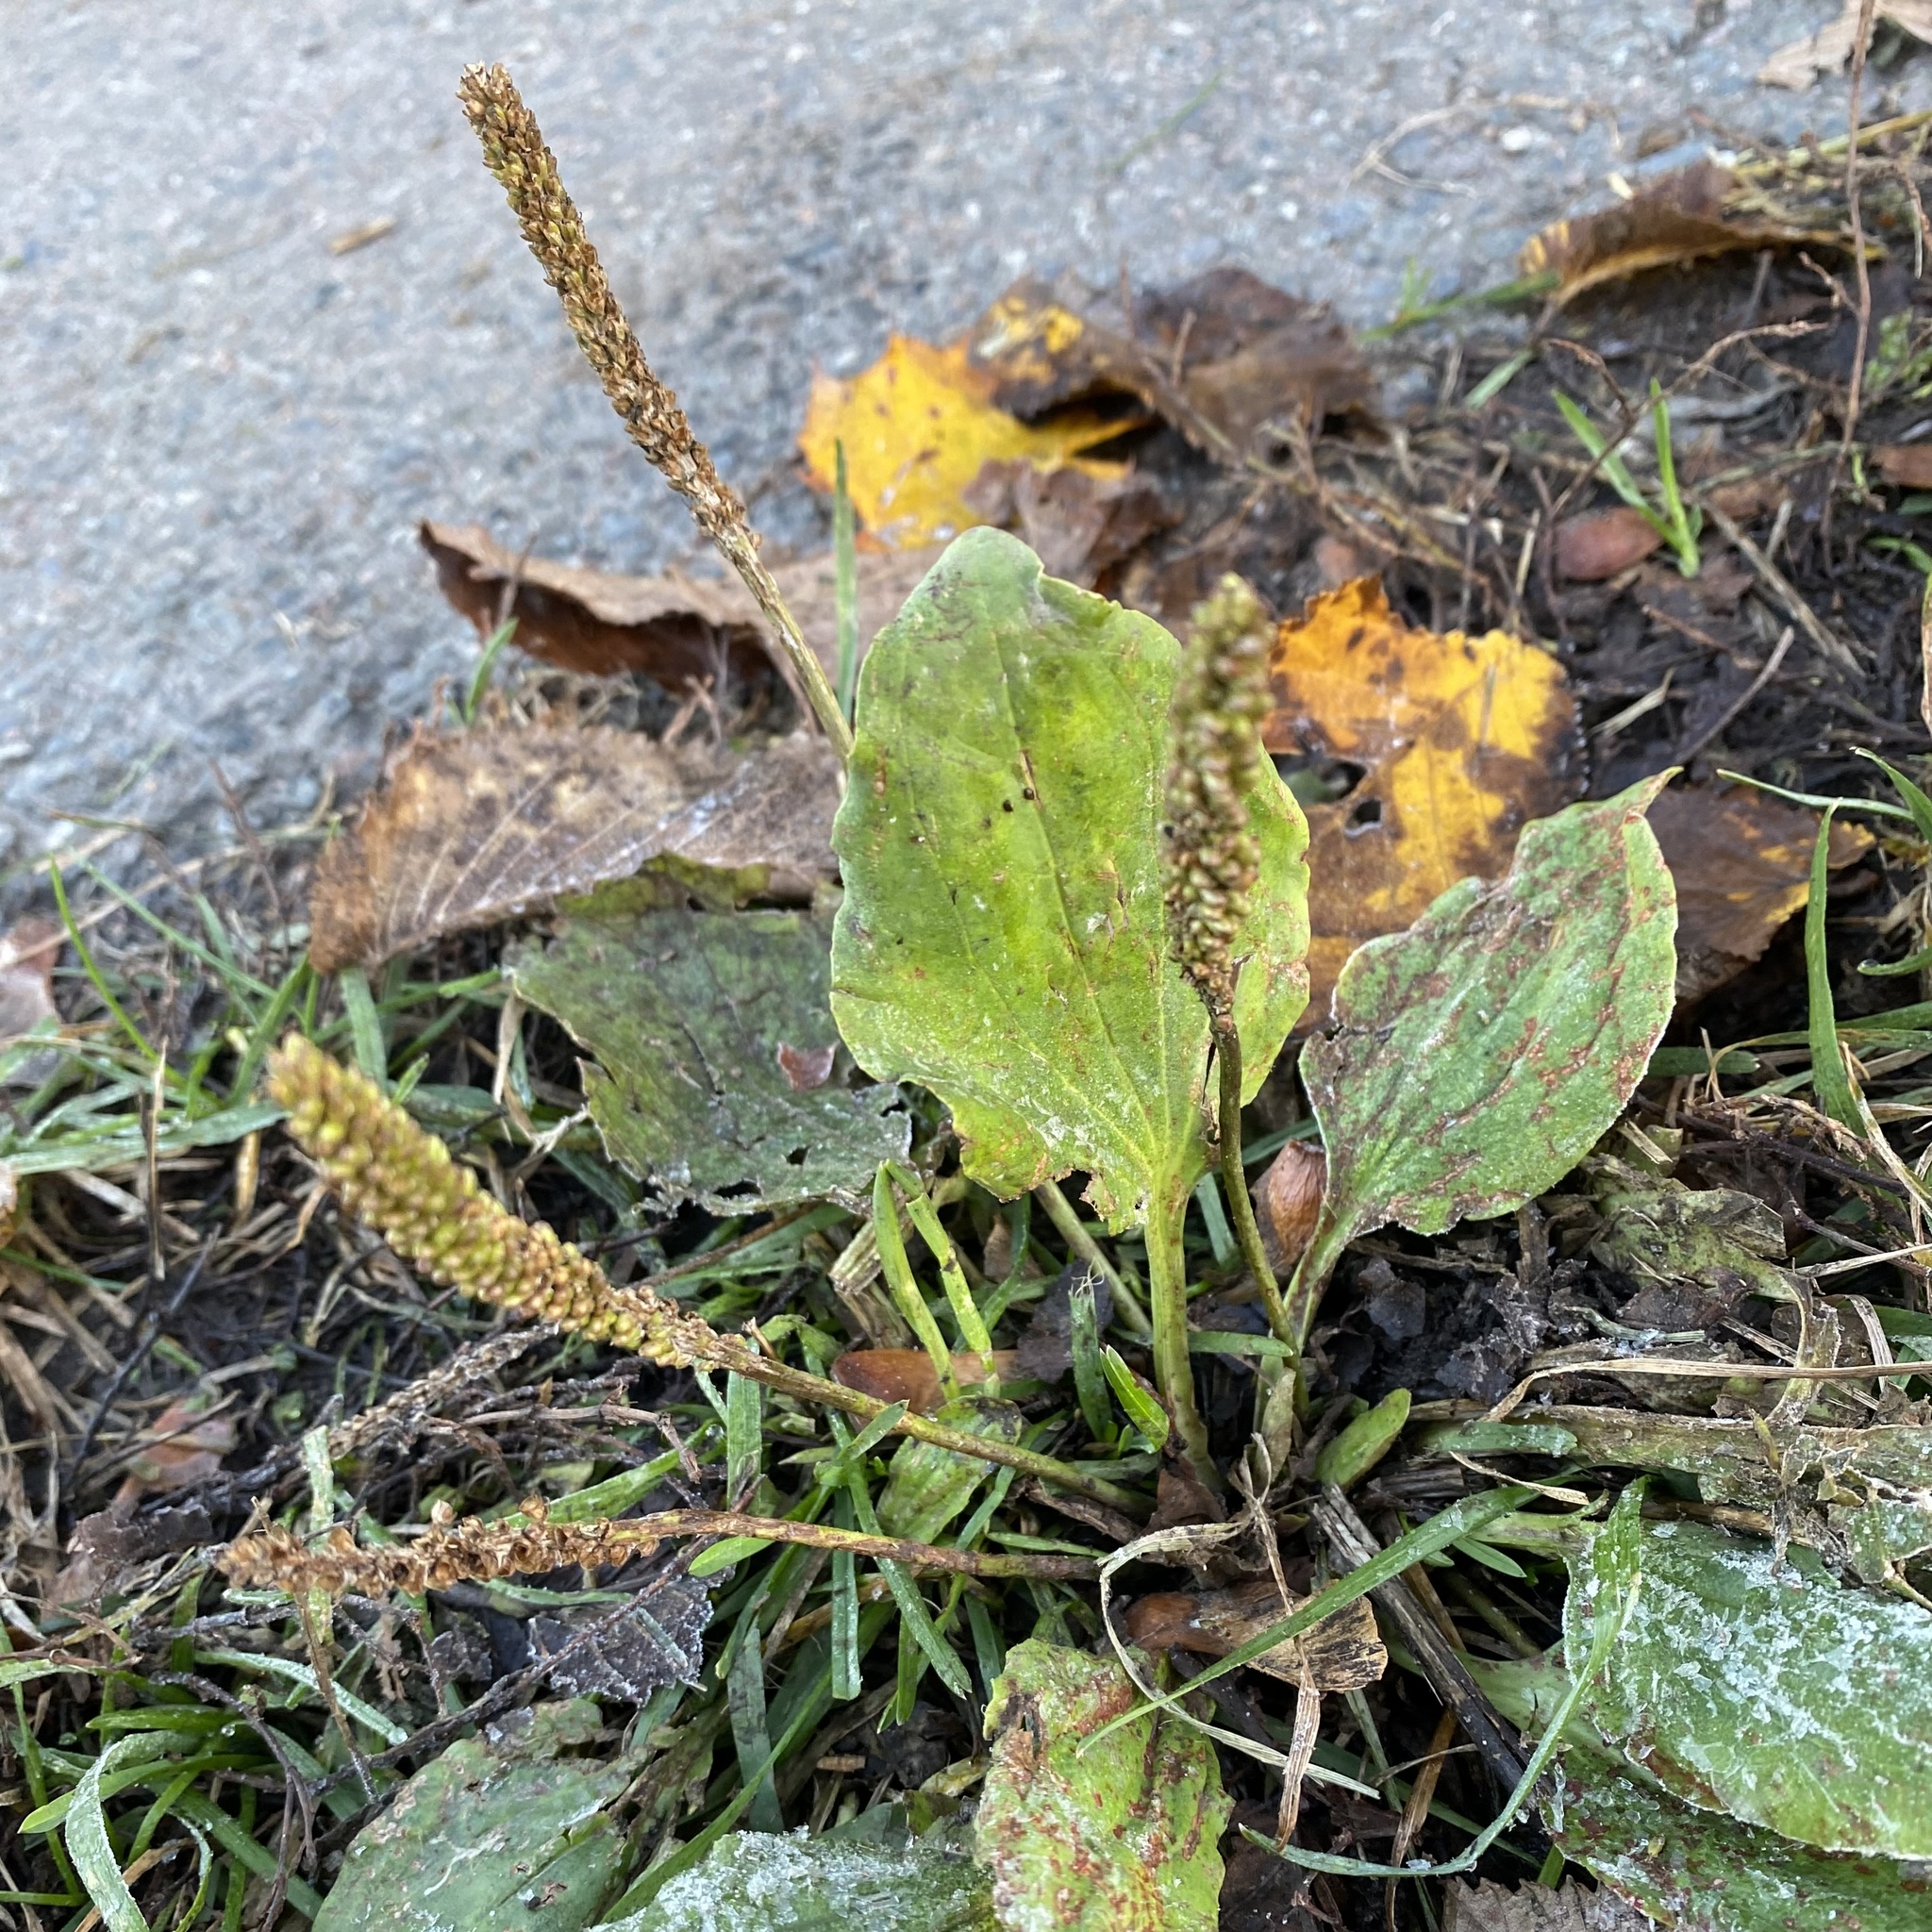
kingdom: Plantae
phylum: Tracheophyta
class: Magnoliopsida
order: Lamiales
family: Plantaginaceae
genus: Plantago
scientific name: Plantago major
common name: Common plantain
